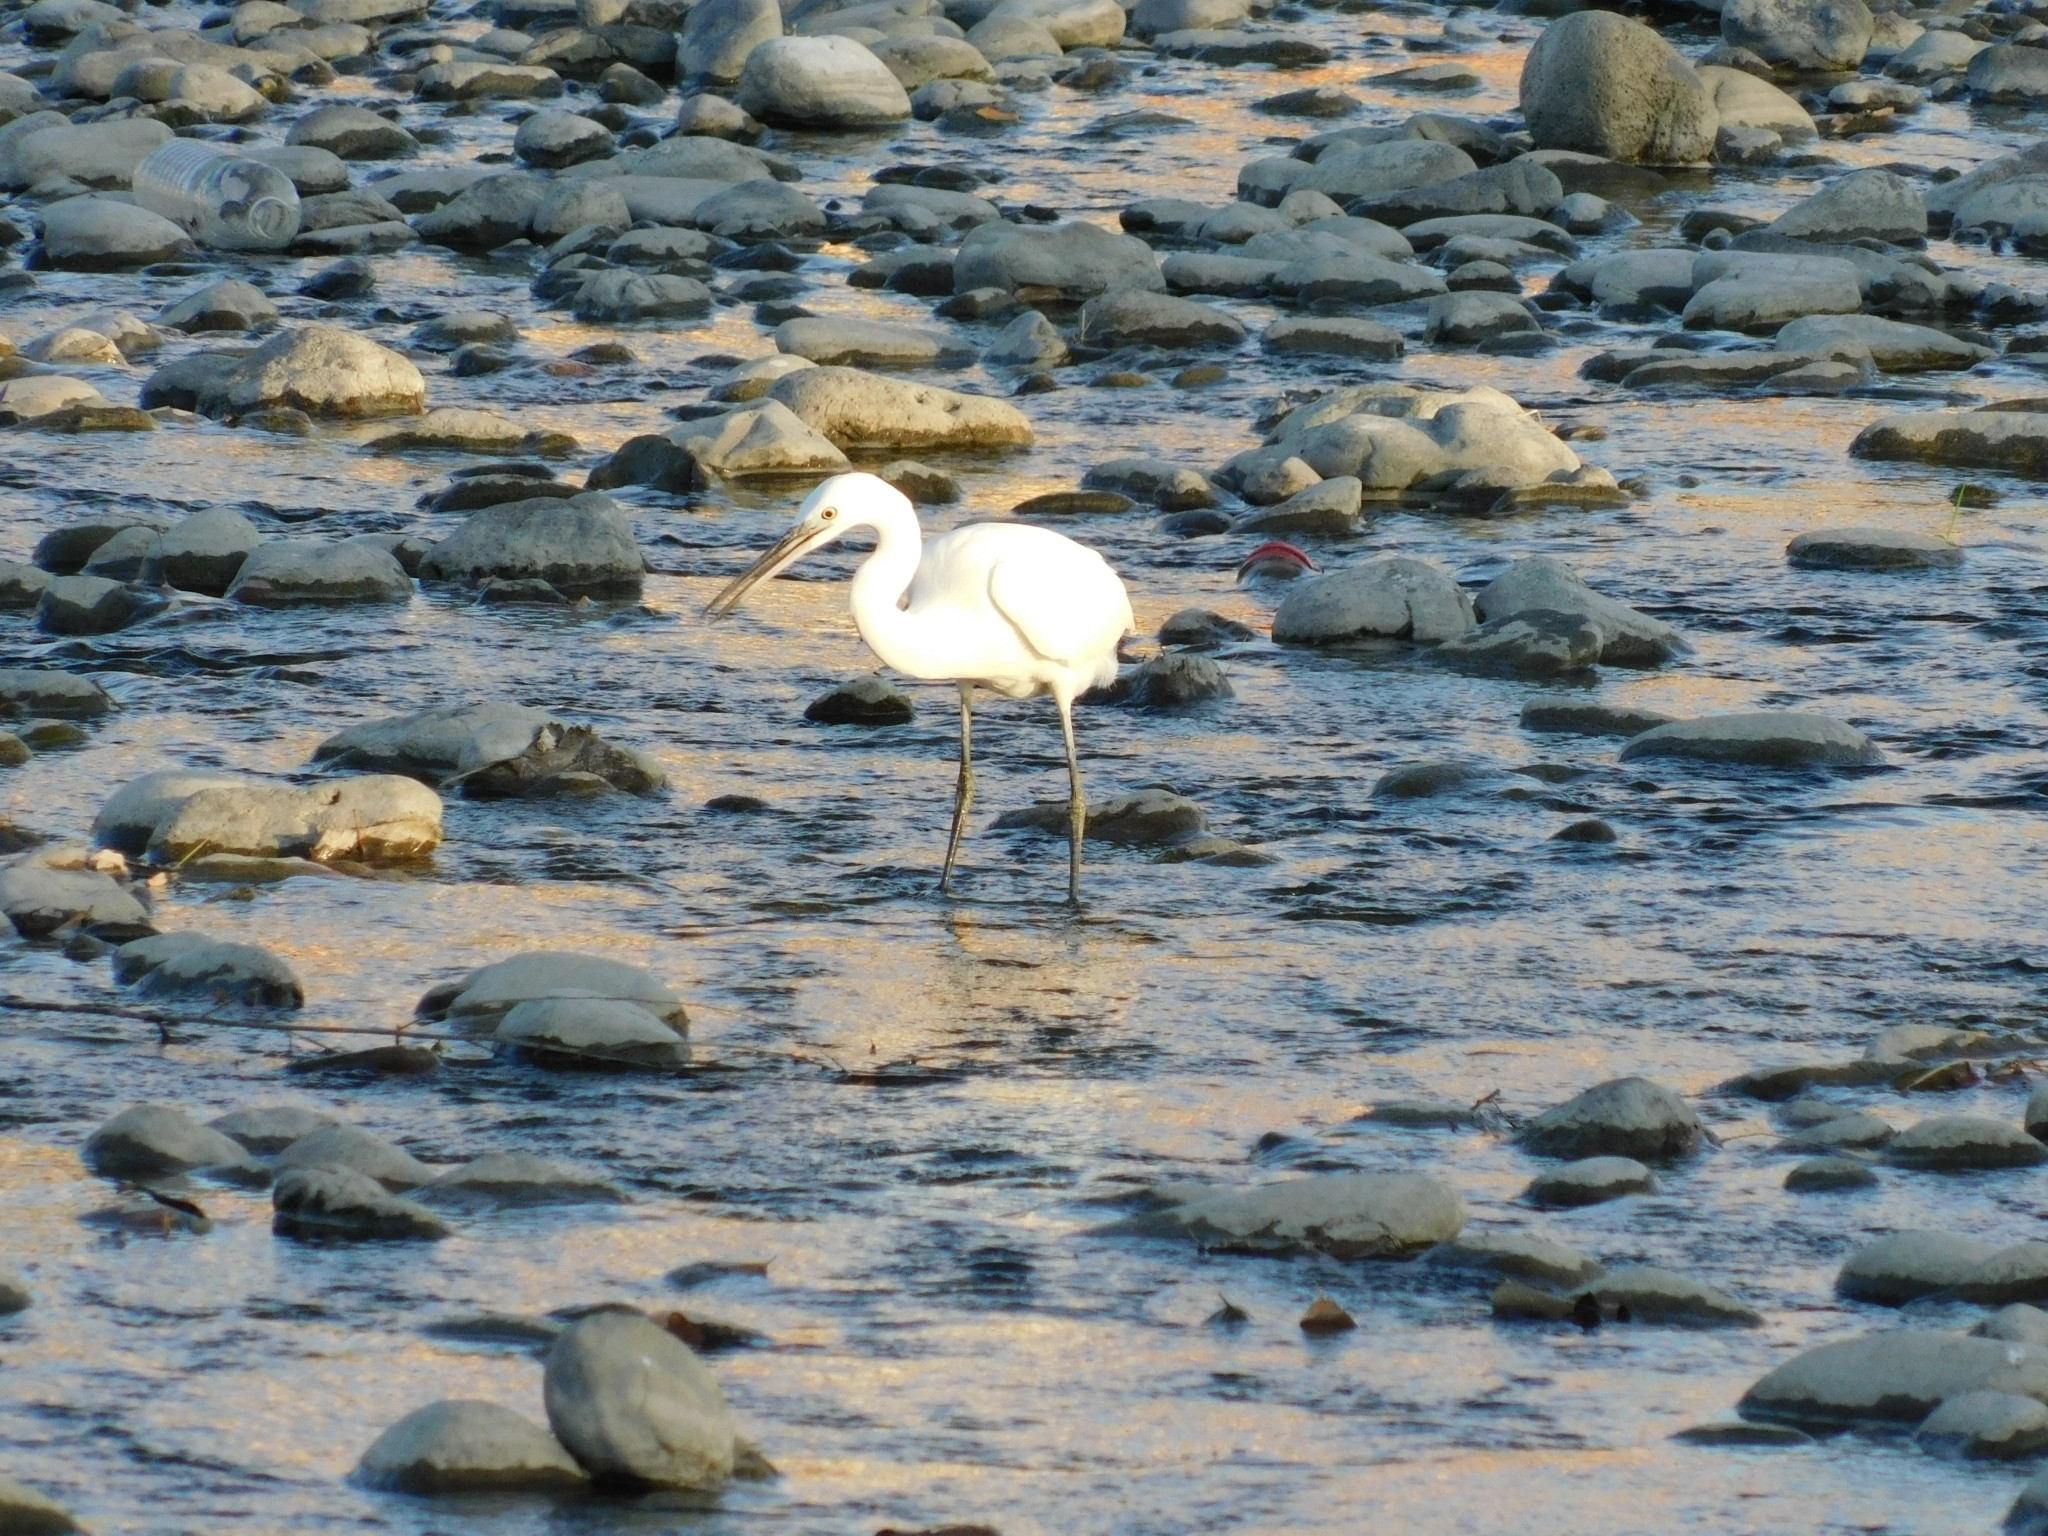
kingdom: Animalia
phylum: Chordata
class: Aves
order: Pelecaniformes
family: Ardeidae
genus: Egretta
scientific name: Egretta garzetta
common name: Little egret
